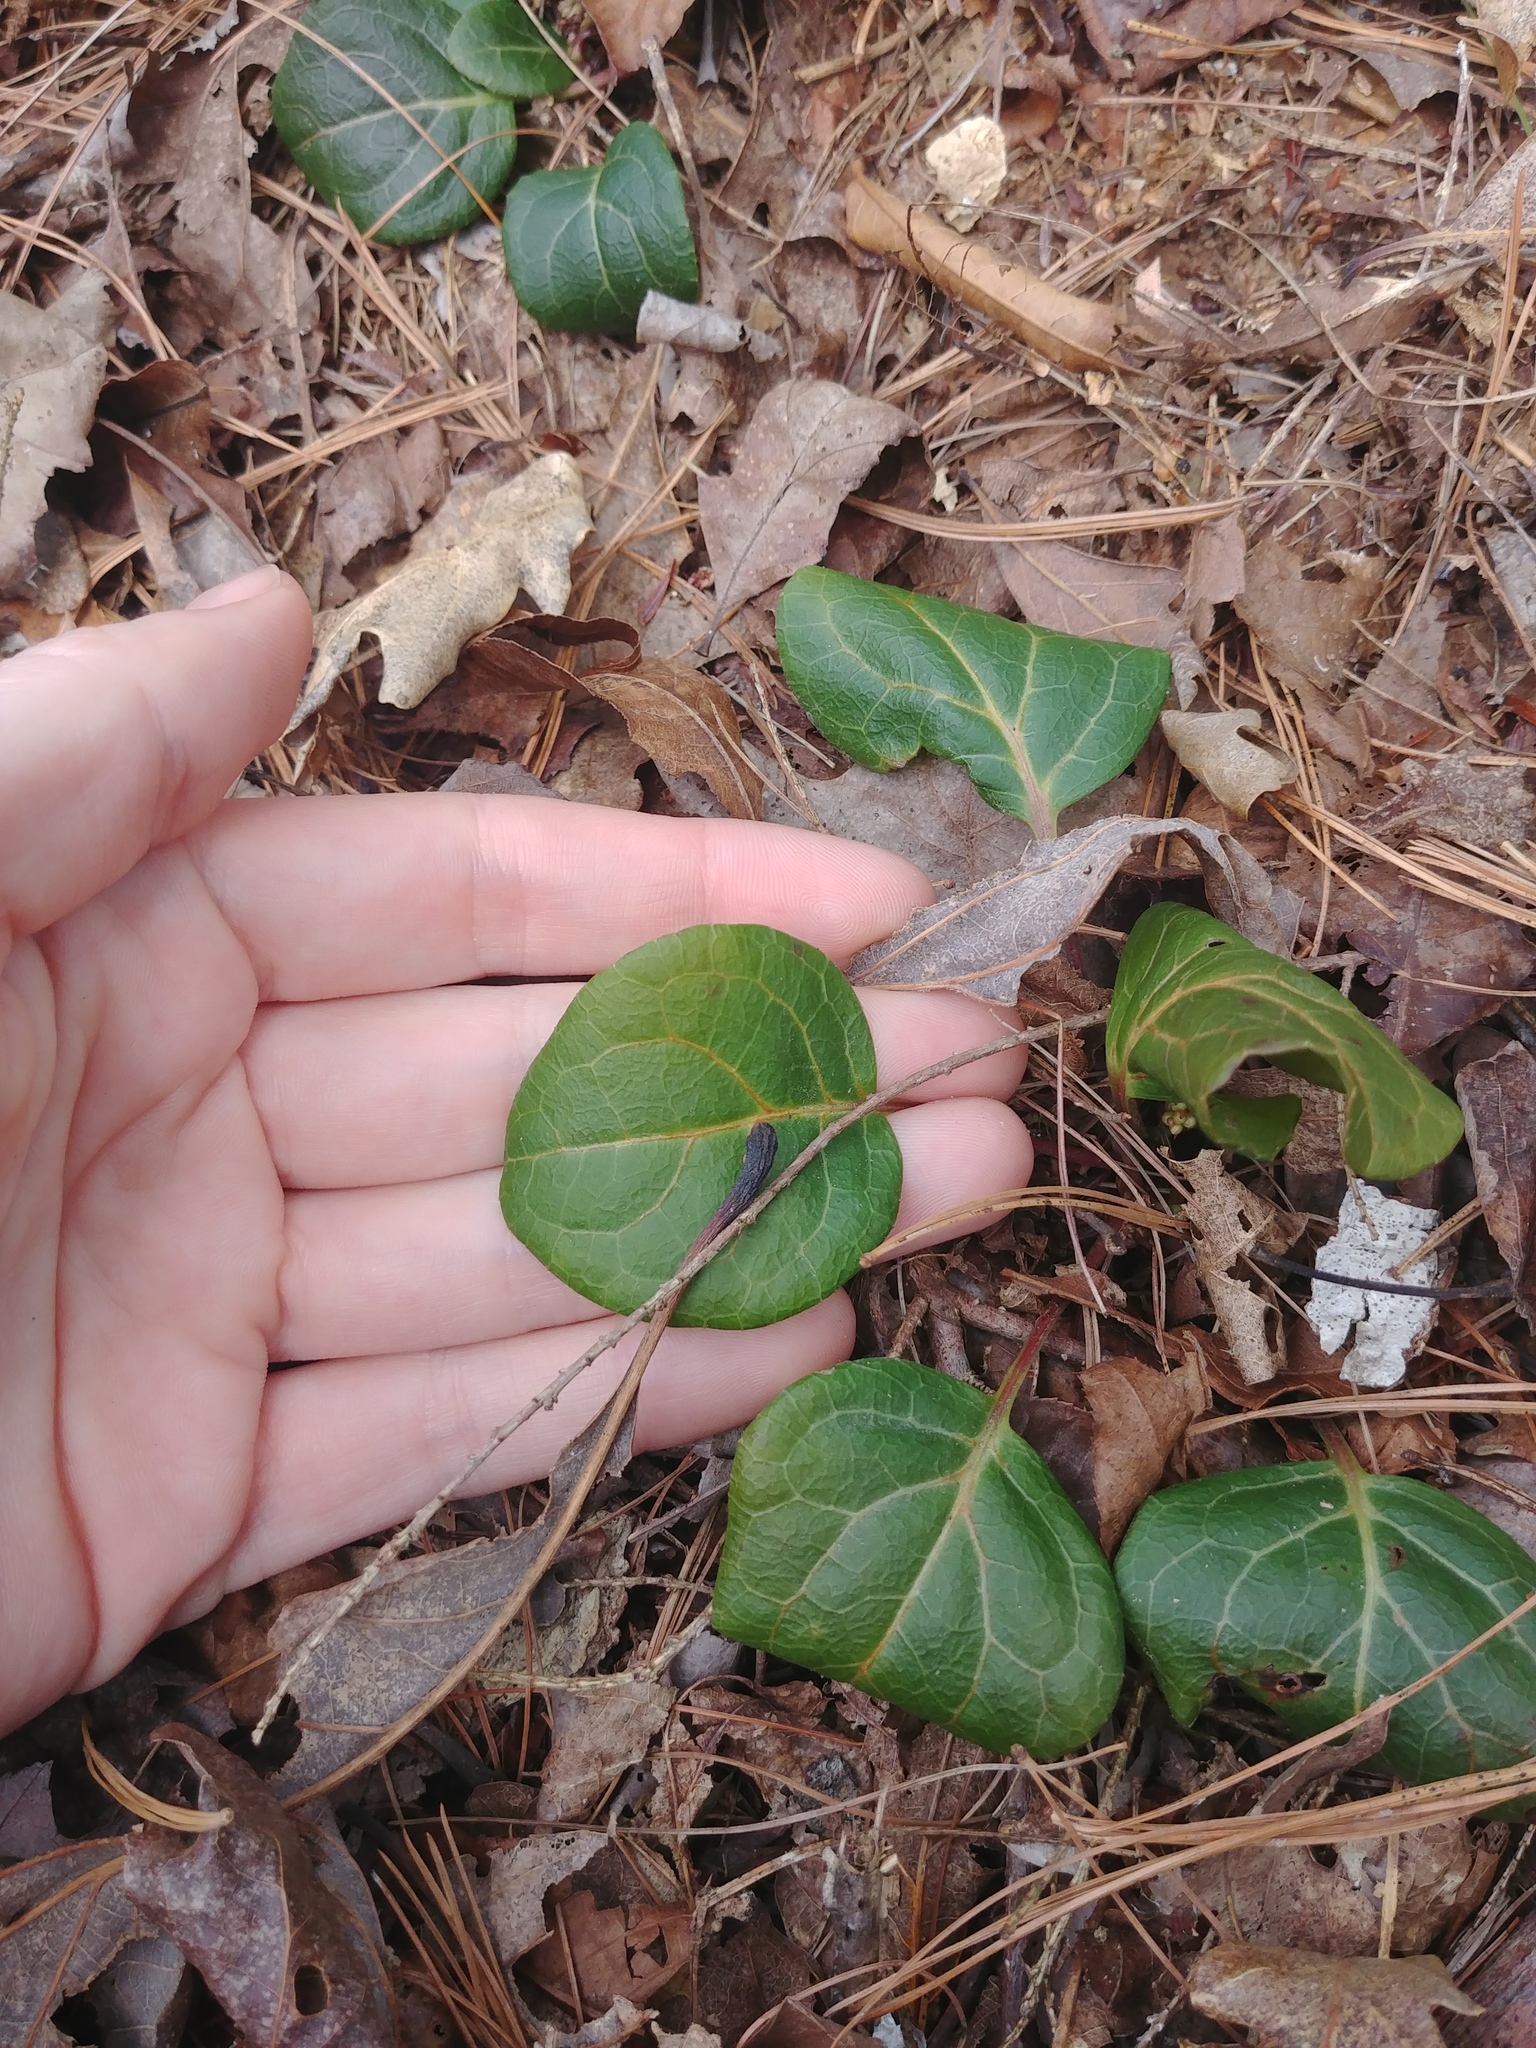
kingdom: Plantae
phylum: Tracheophyta
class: Magnoliopsida
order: Ericales
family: Ericaceae
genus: Pyrola
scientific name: Pyrola americana
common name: American wintergreen
